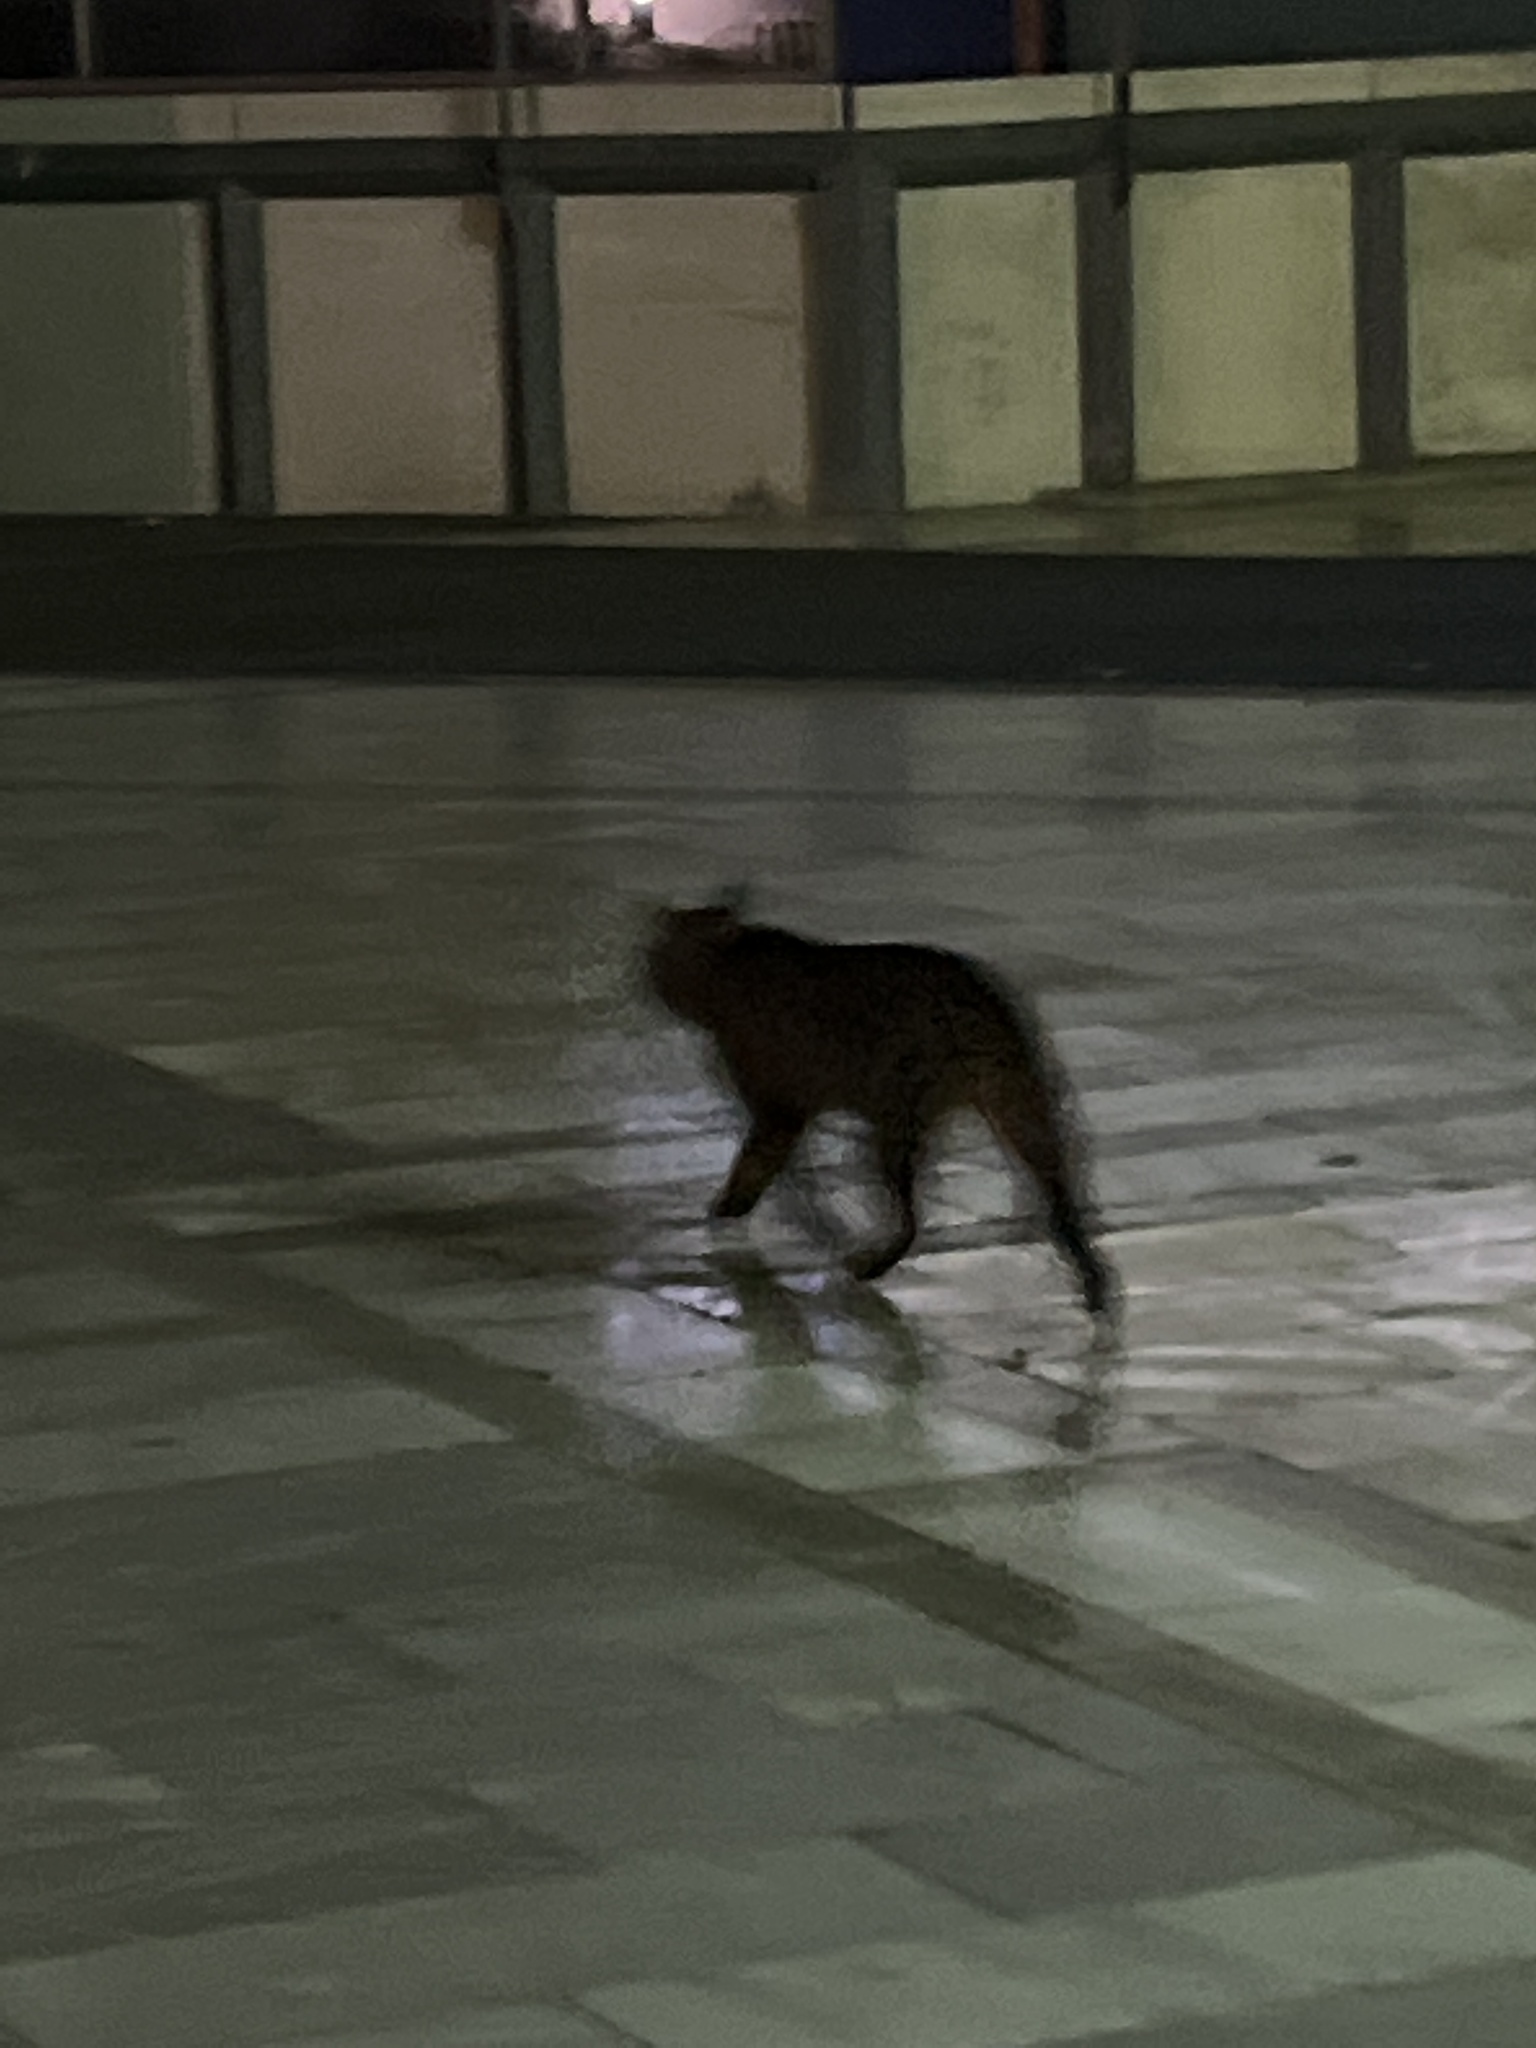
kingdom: Animalia
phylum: Chordata
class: Mammalia
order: Carnivora
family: Felidae
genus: Felis
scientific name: Felis catus
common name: Domestic cat
